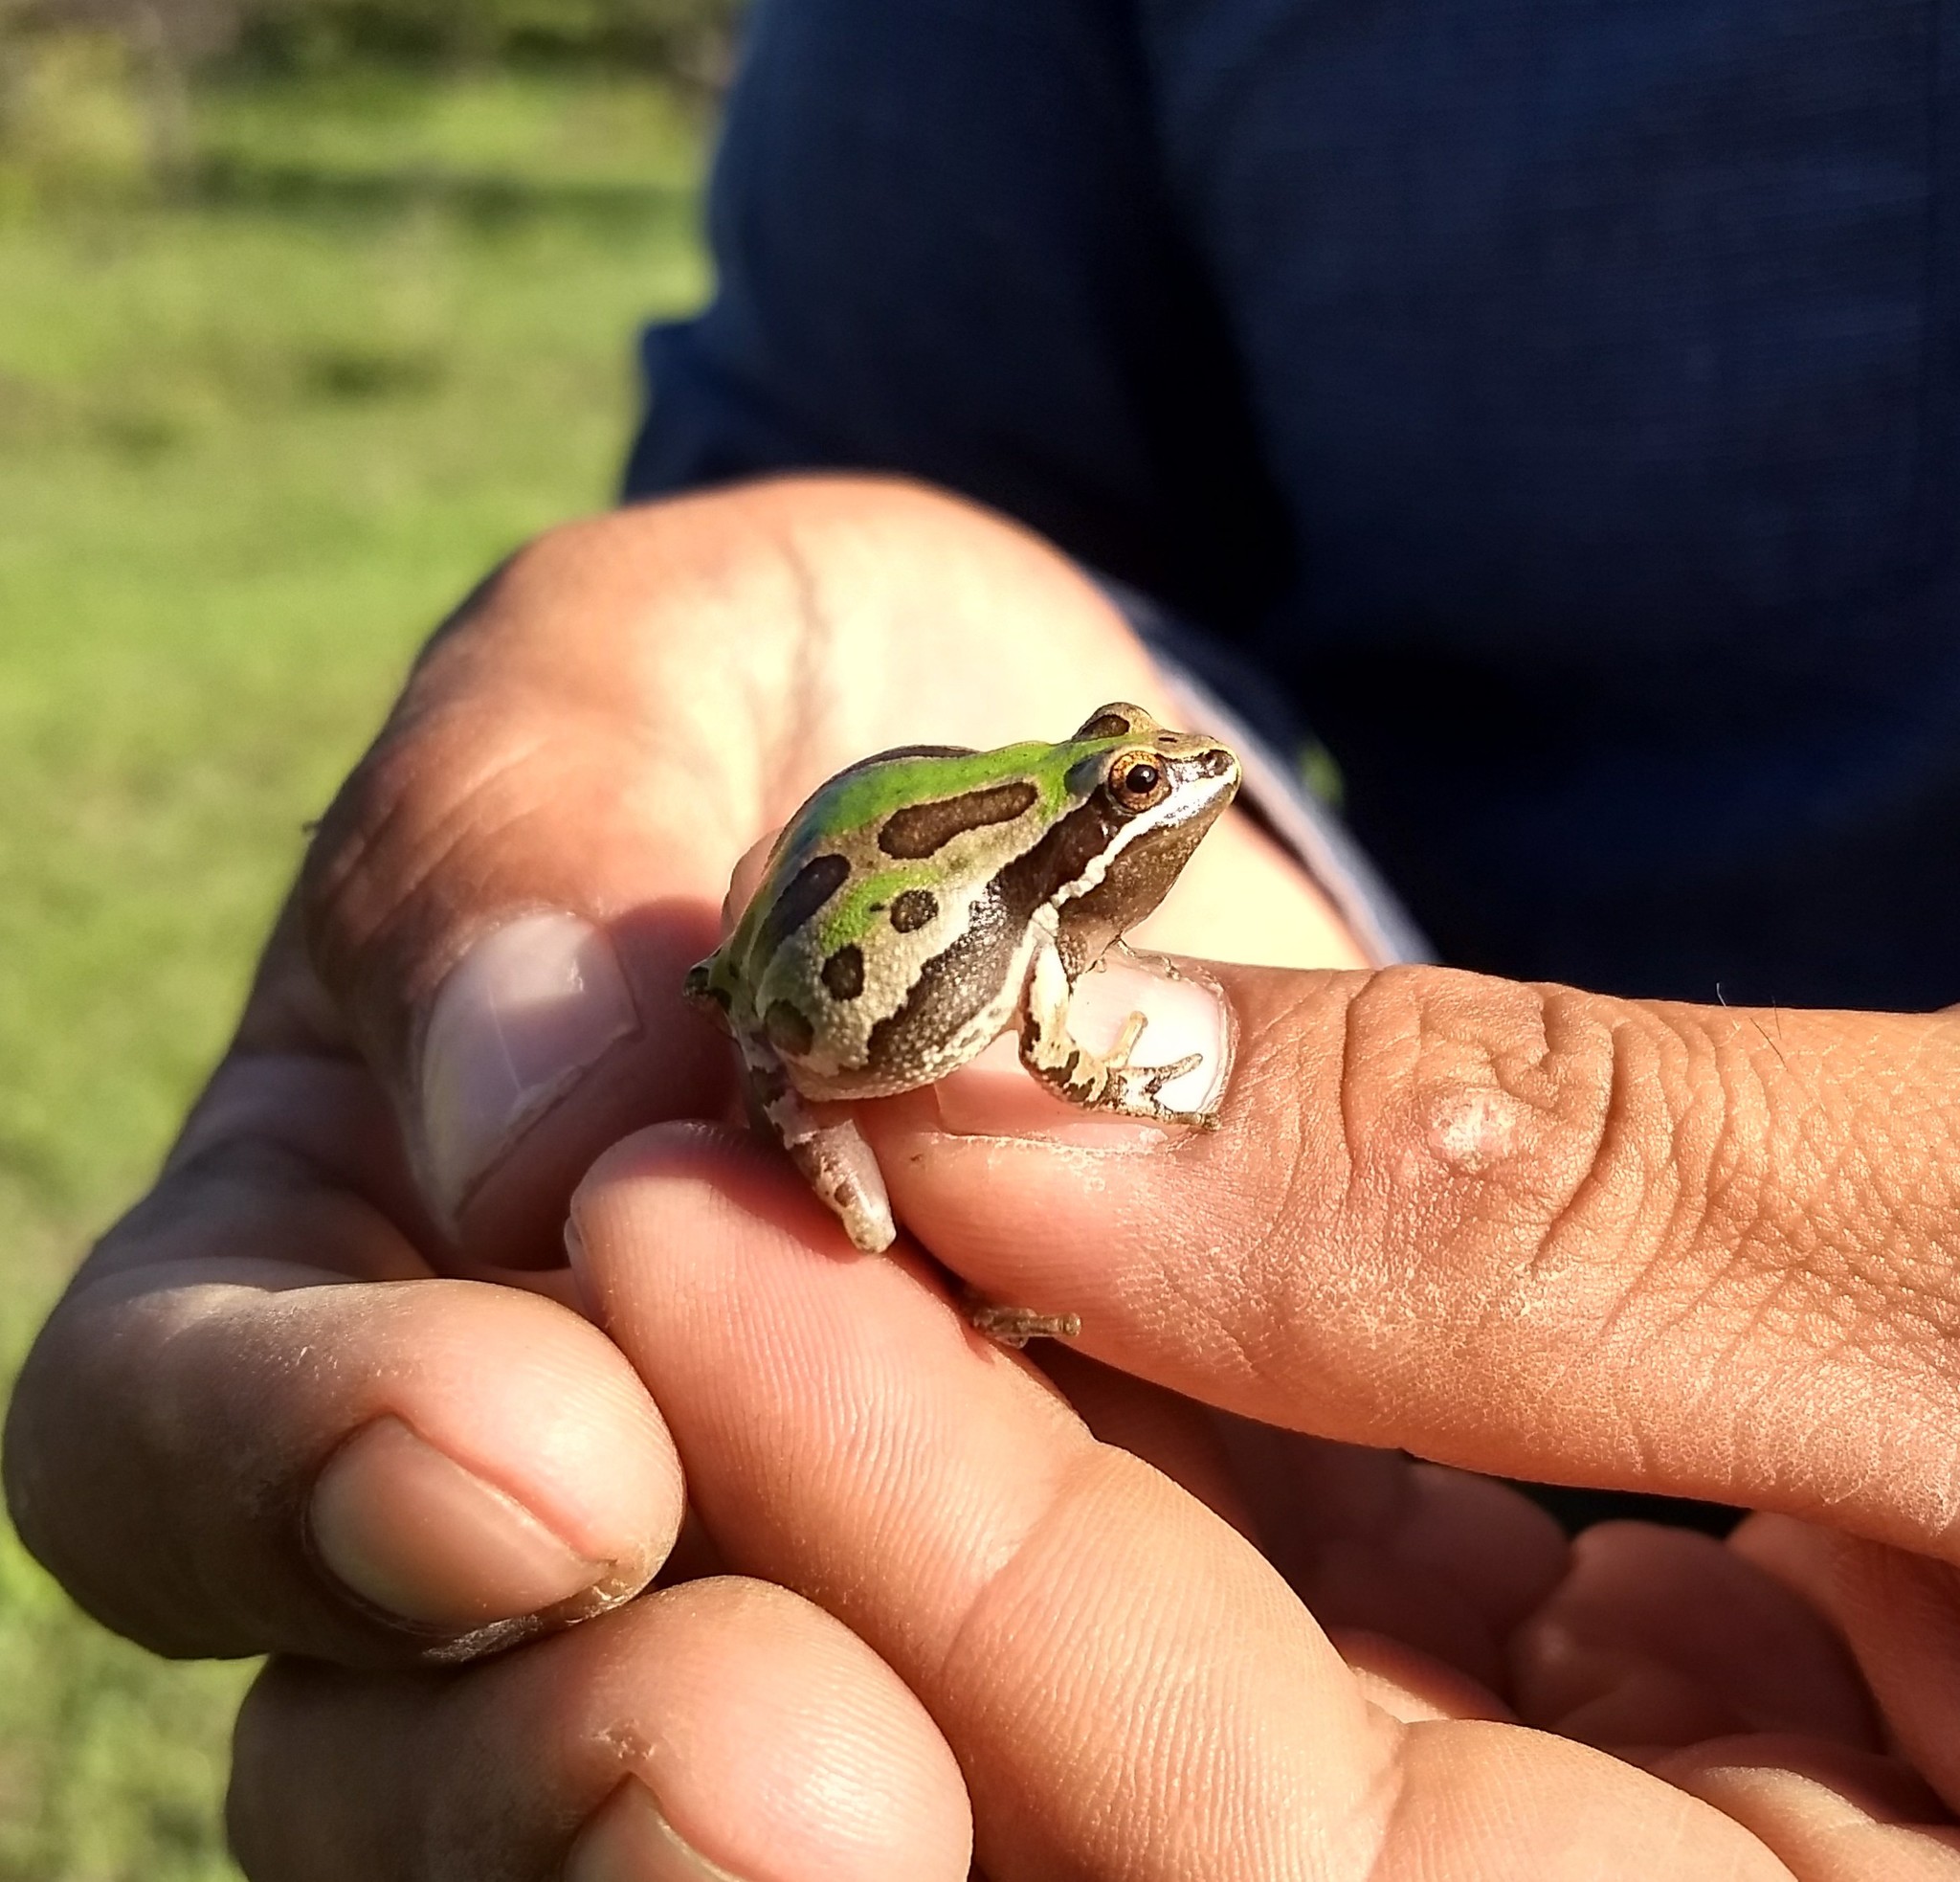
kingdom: Animalia
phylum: Chordata
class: Amphibia
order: Anura
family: Hylidae
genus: Dryophytes
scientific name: Dryophytes eximius
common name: Mountain treefrog
